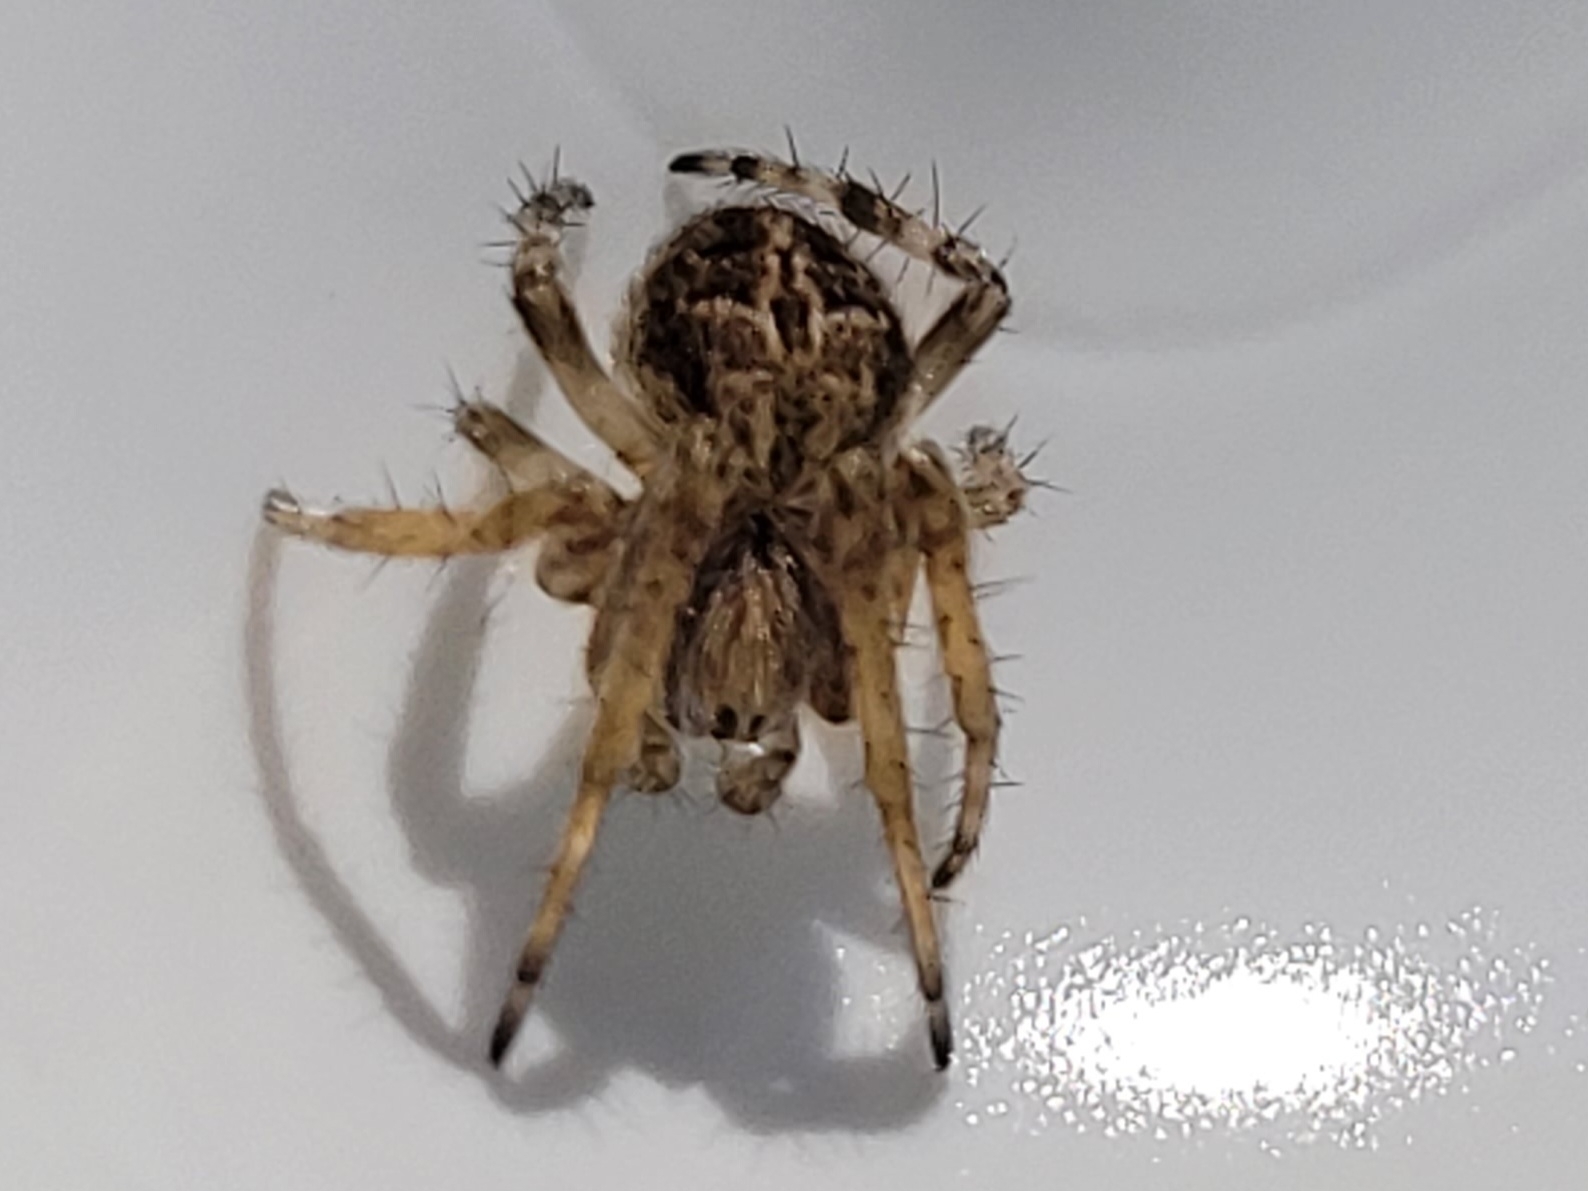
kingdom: Animalia
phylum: Arthropoda
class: Arachnida
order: Araneae
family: Araneidae
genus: Agalenatea
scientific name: Agalenatea redii
